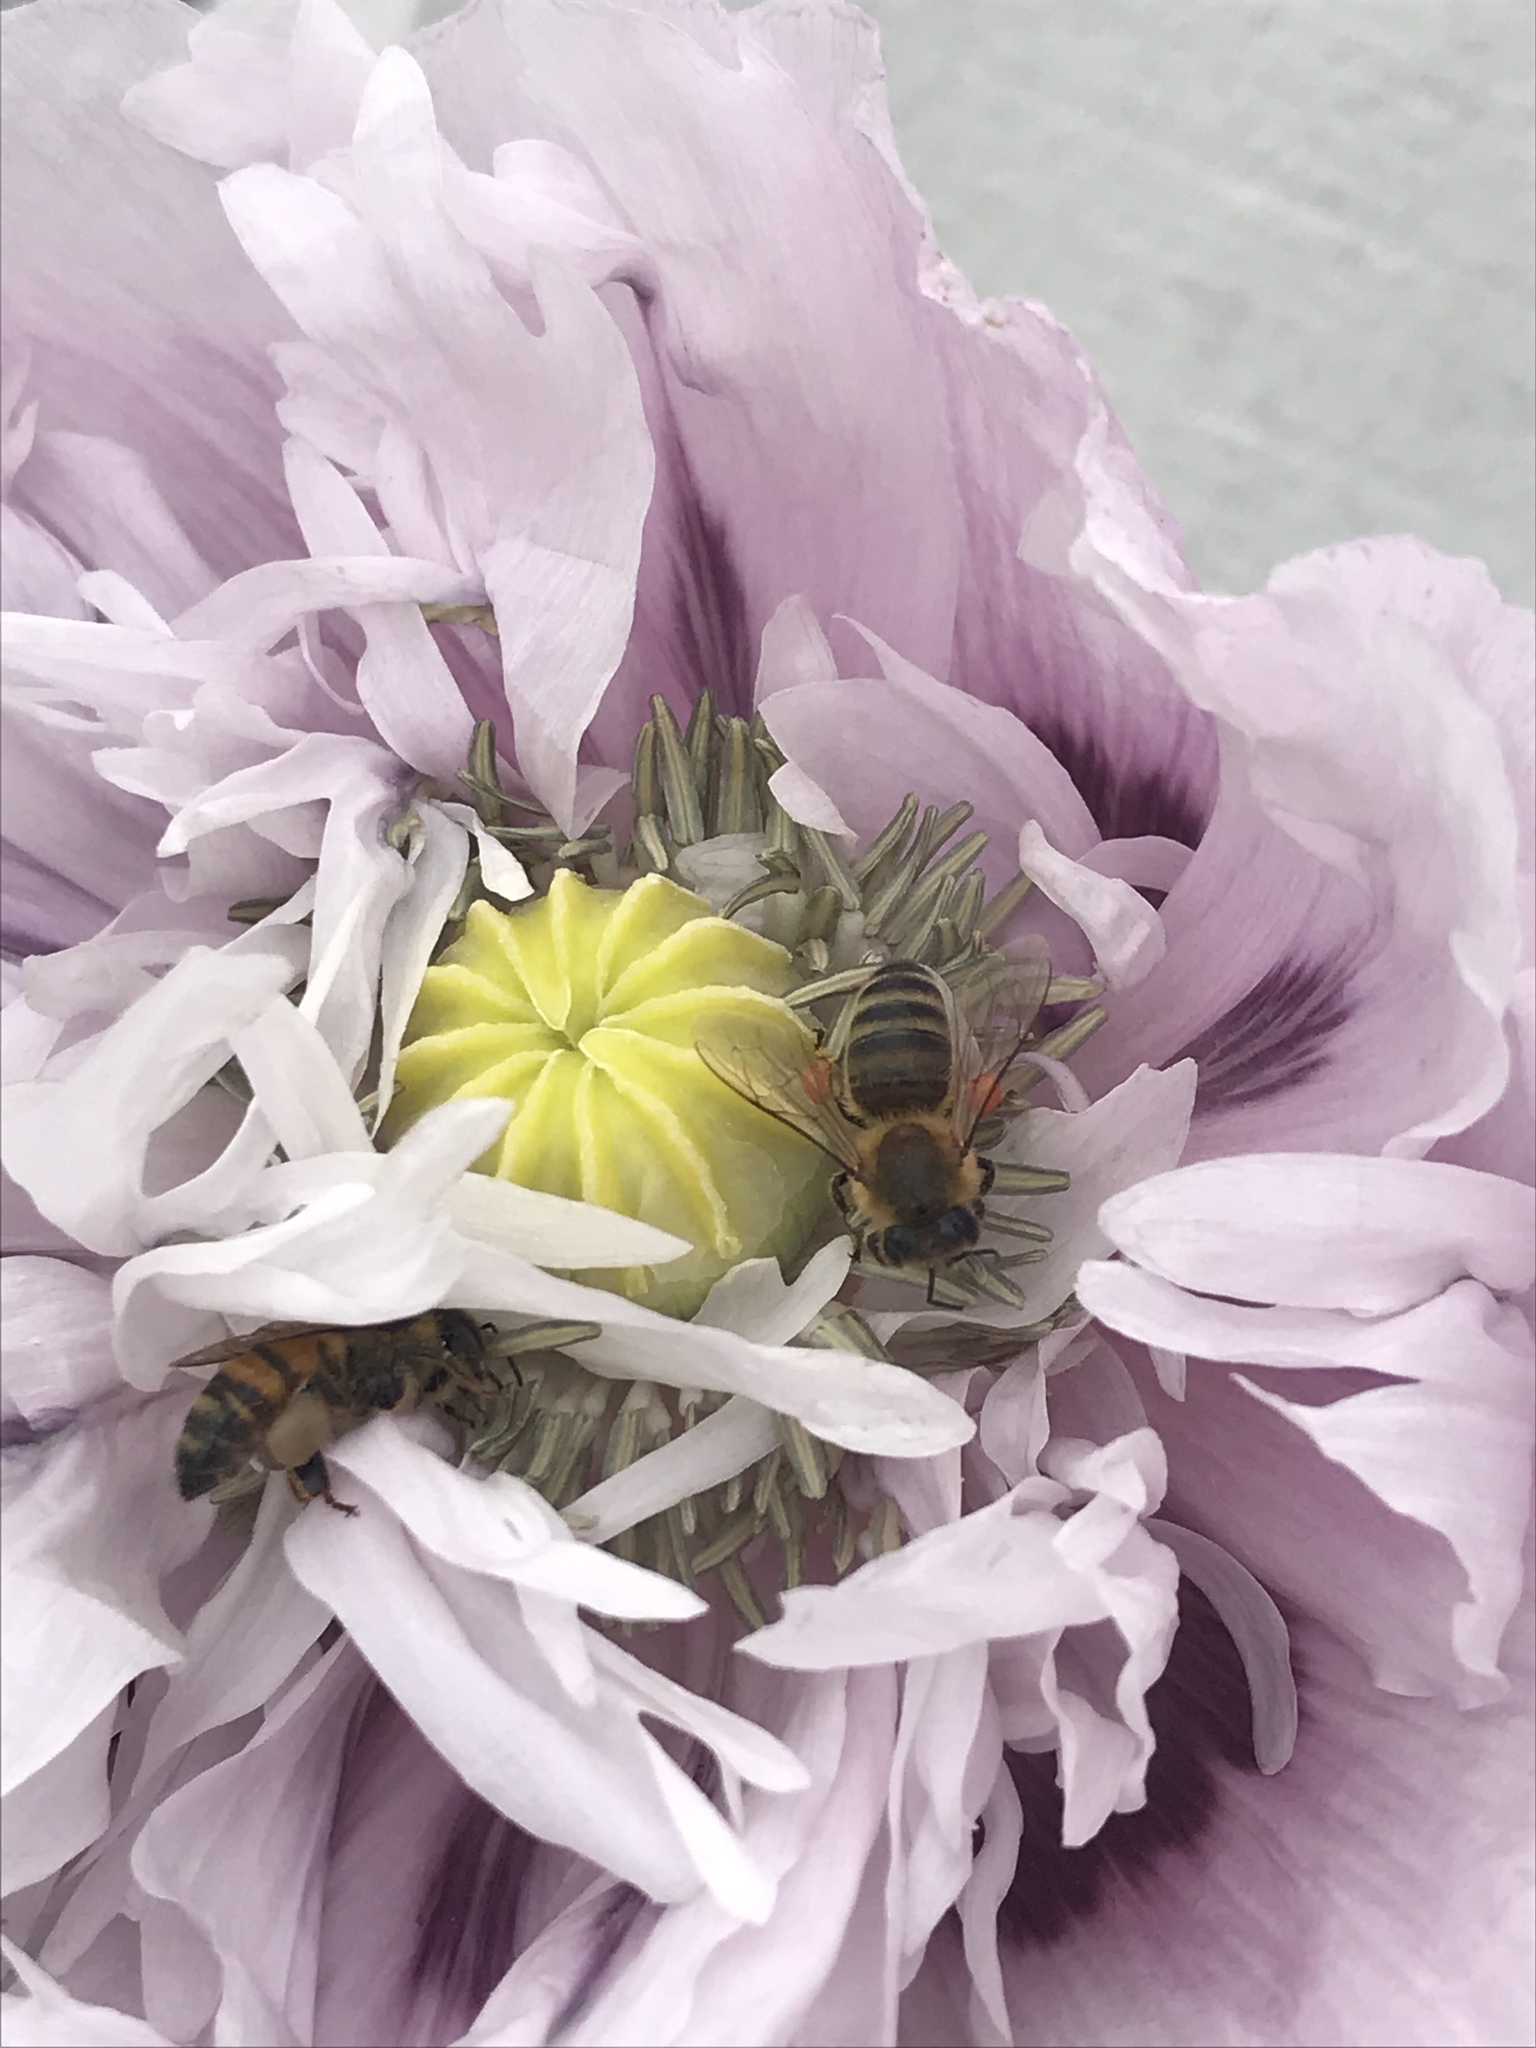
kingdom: Animalia
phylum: Arthropoda
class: Insecta
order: Hymenoptera
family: Apidae
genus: Apis
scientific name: Apis mellifera
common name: Honey bee
